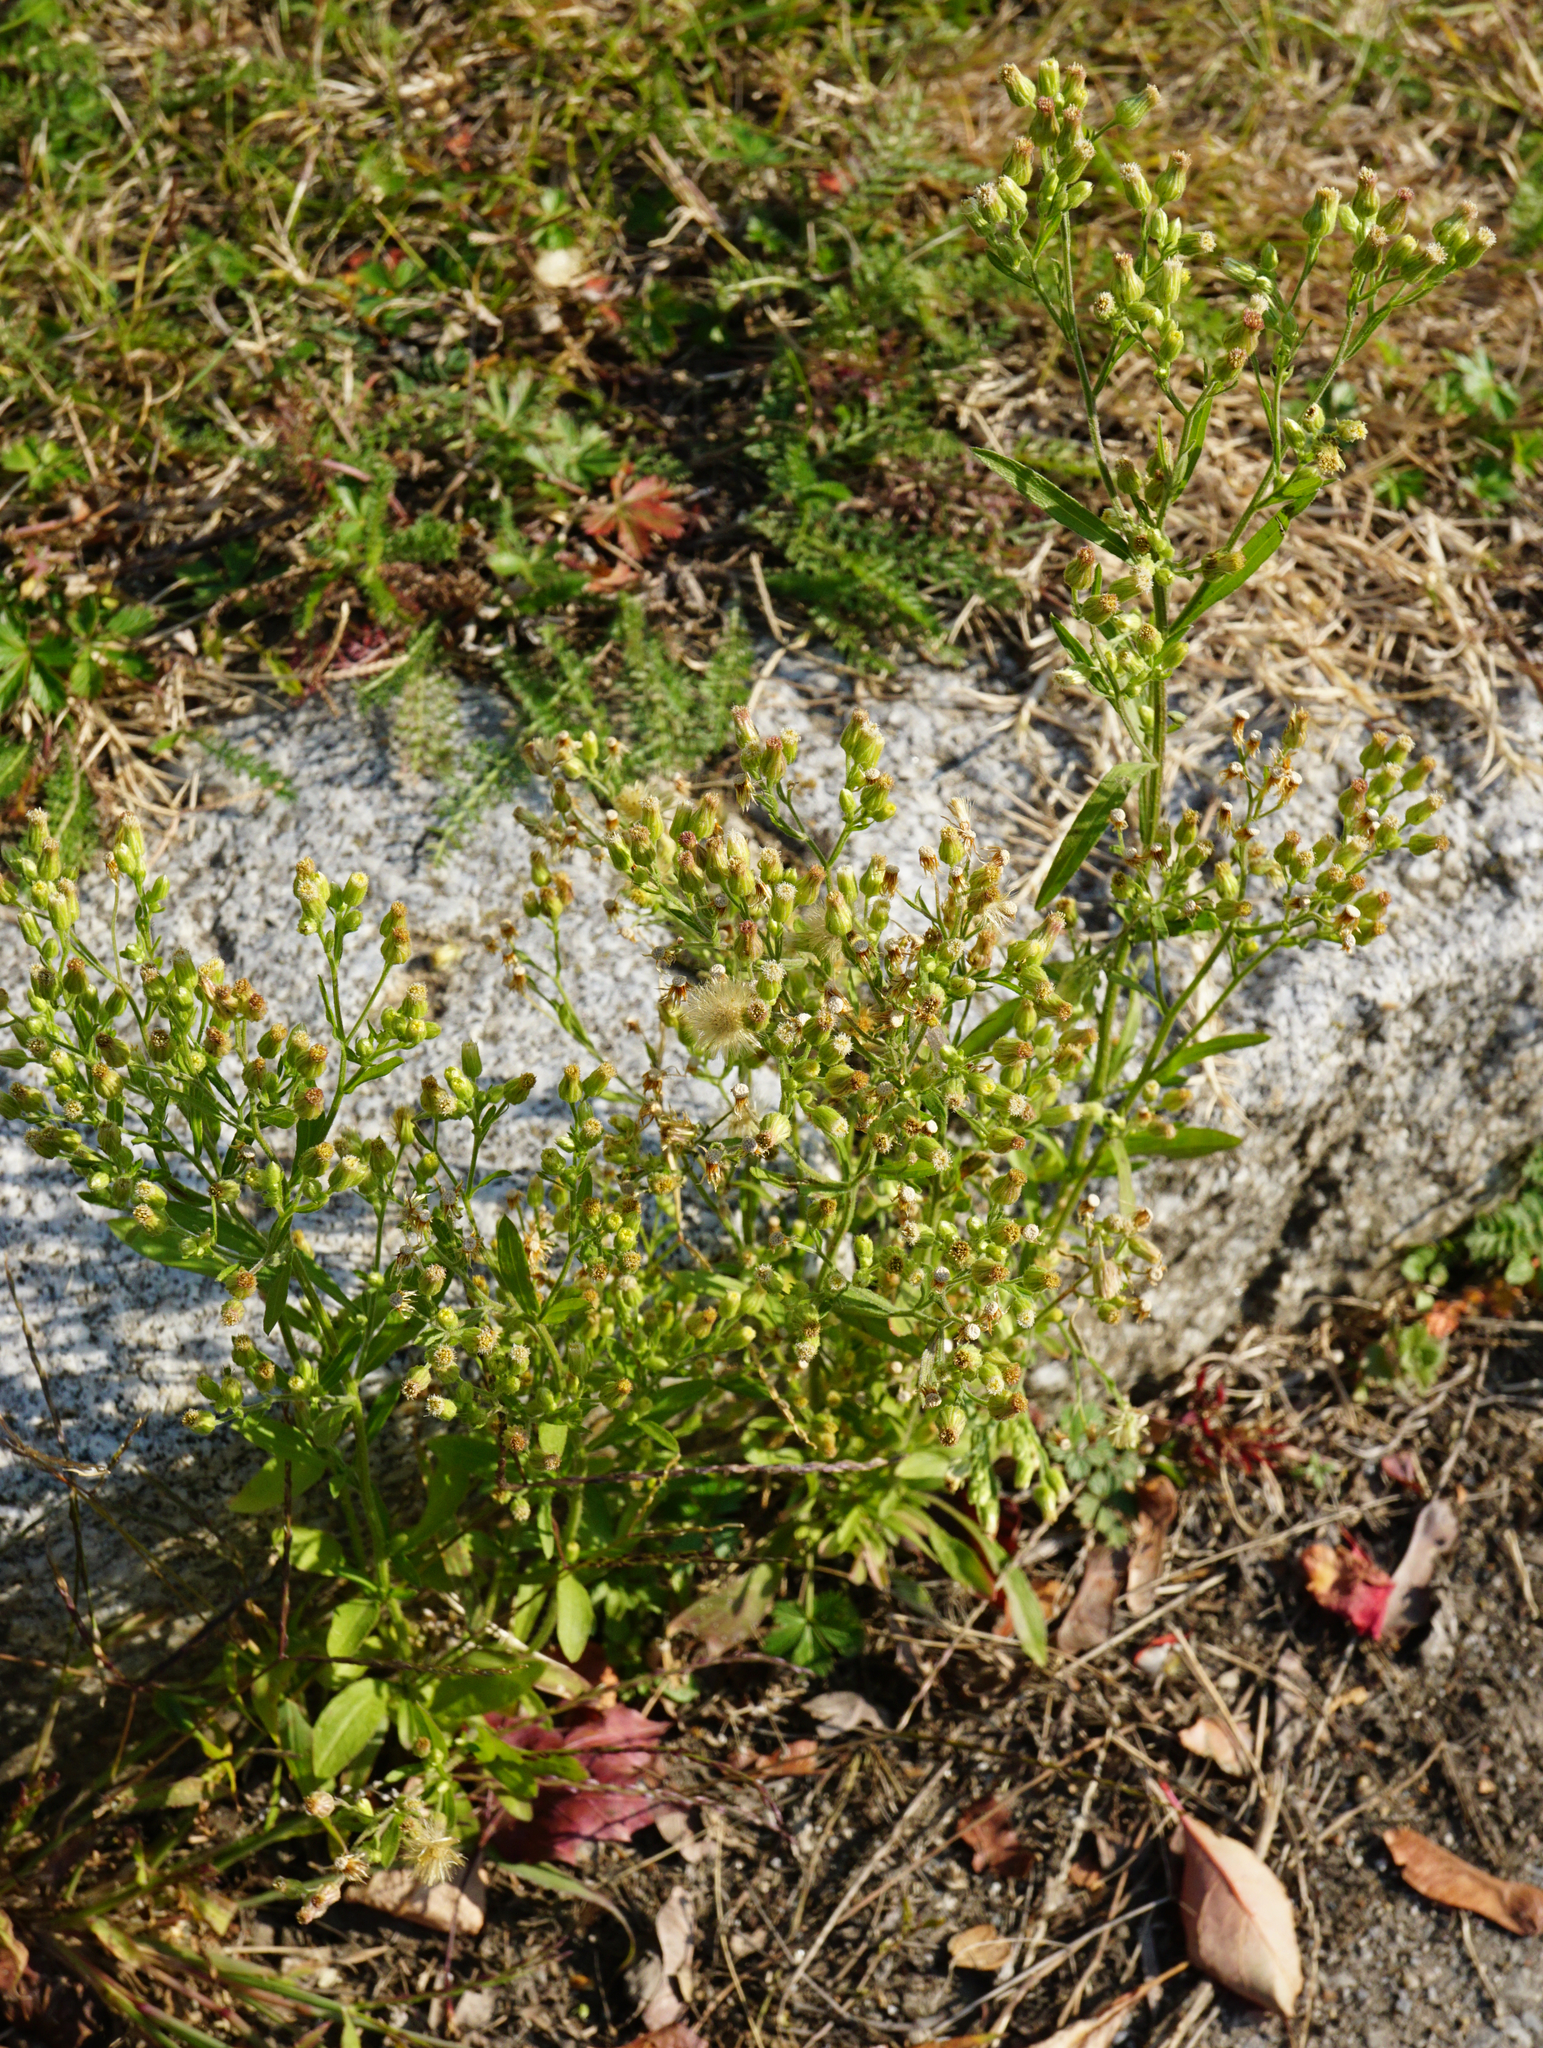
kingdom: Plantae
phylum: Tracheophyta
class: Magnoliopsida
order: Asterales
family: Asteraceae
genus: Erigeron
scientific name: Erigeron sumatrensis
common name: Daisy
